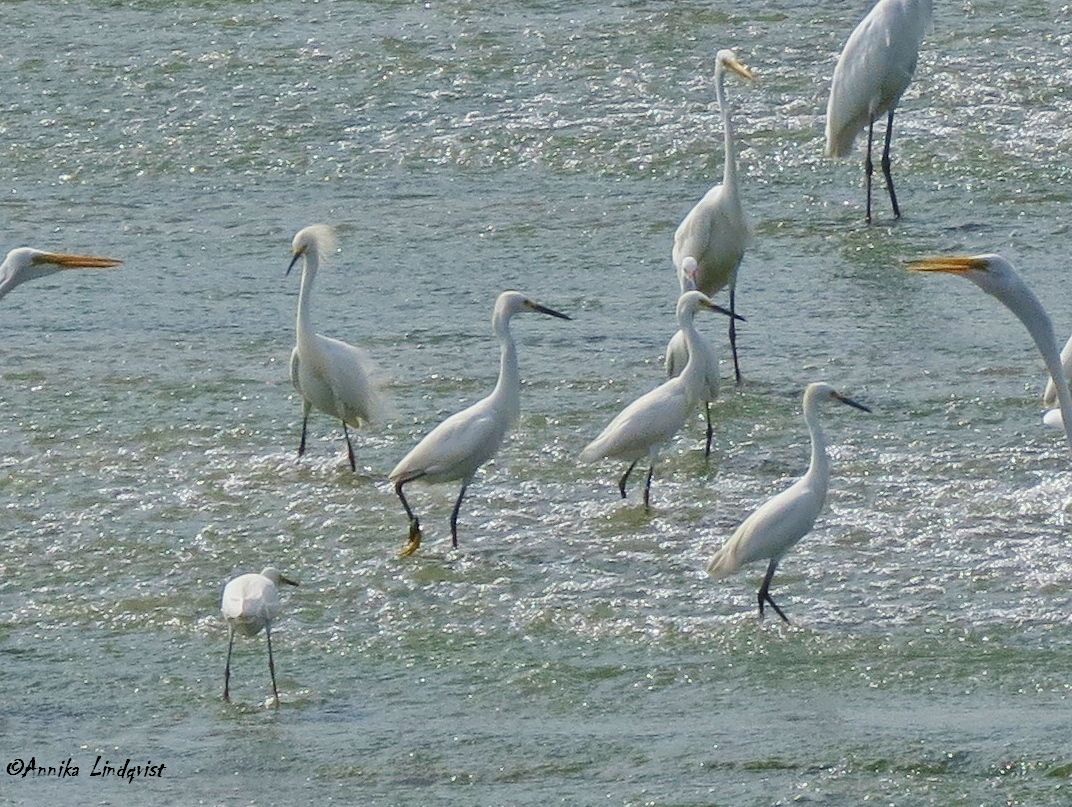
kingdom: Animalia
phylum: Chordata
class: Aves
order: Pelecaniformes
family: Ardeidae
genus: Egretta
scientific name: Egretta thula
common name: Snowy egret
